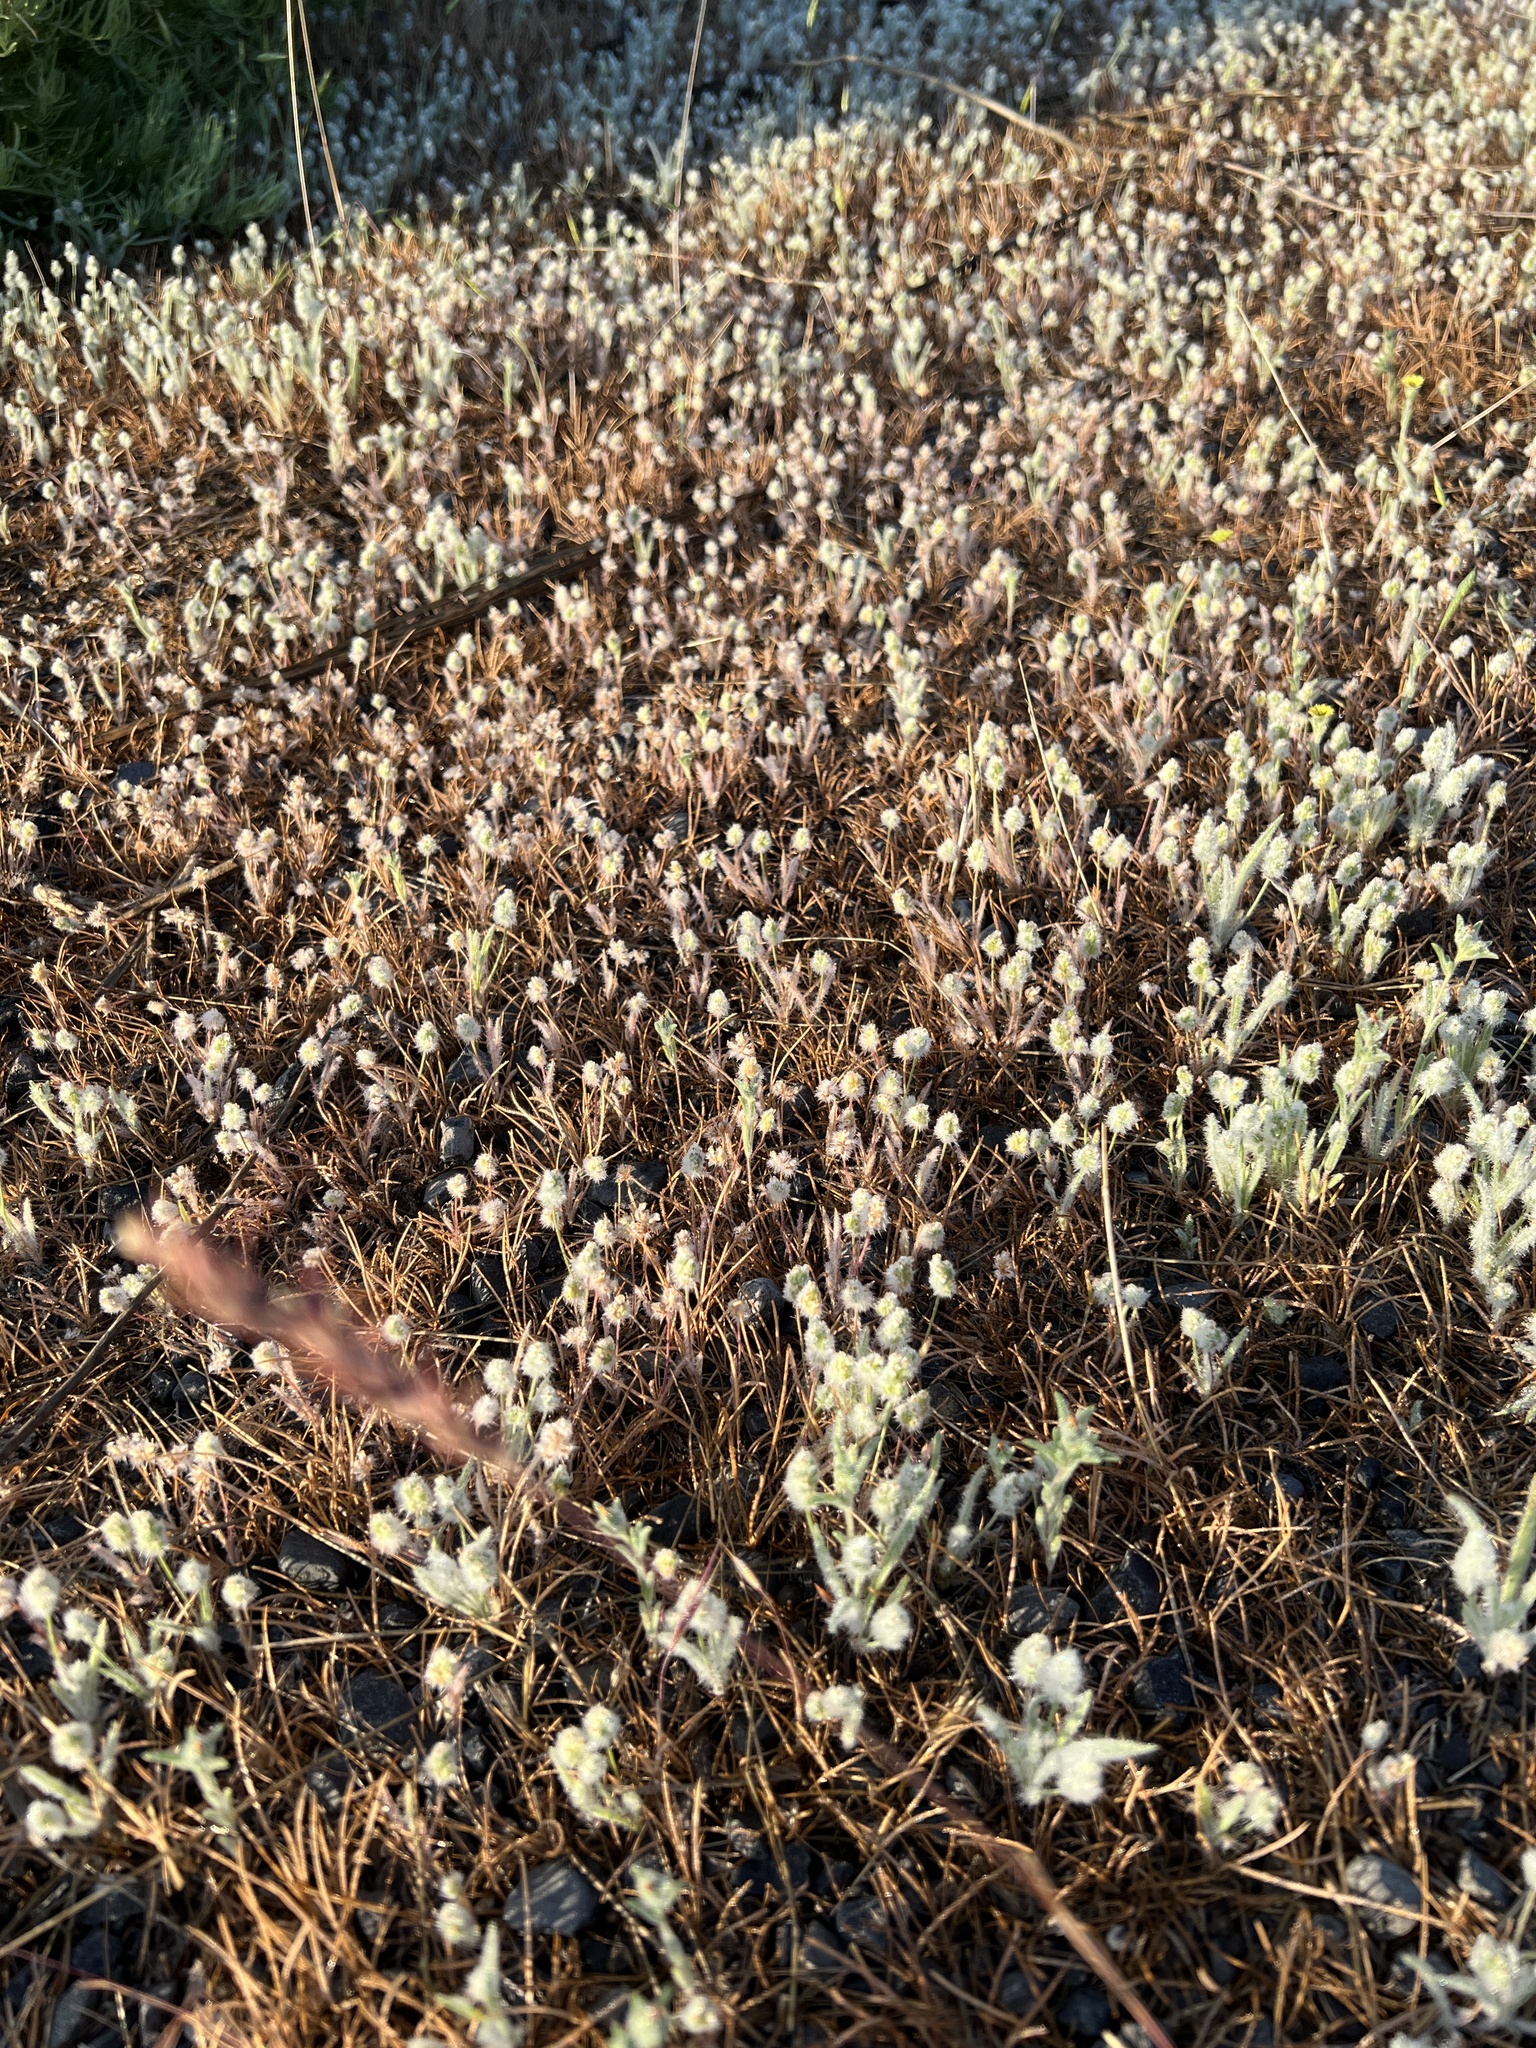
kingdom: Plantae
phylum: Tracheophyta
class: Magnoliopsida
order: Lamiales
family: Plantaginaceae
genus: Plantago
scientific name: Plantago patagonica
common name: Patagonia indian-wheat
